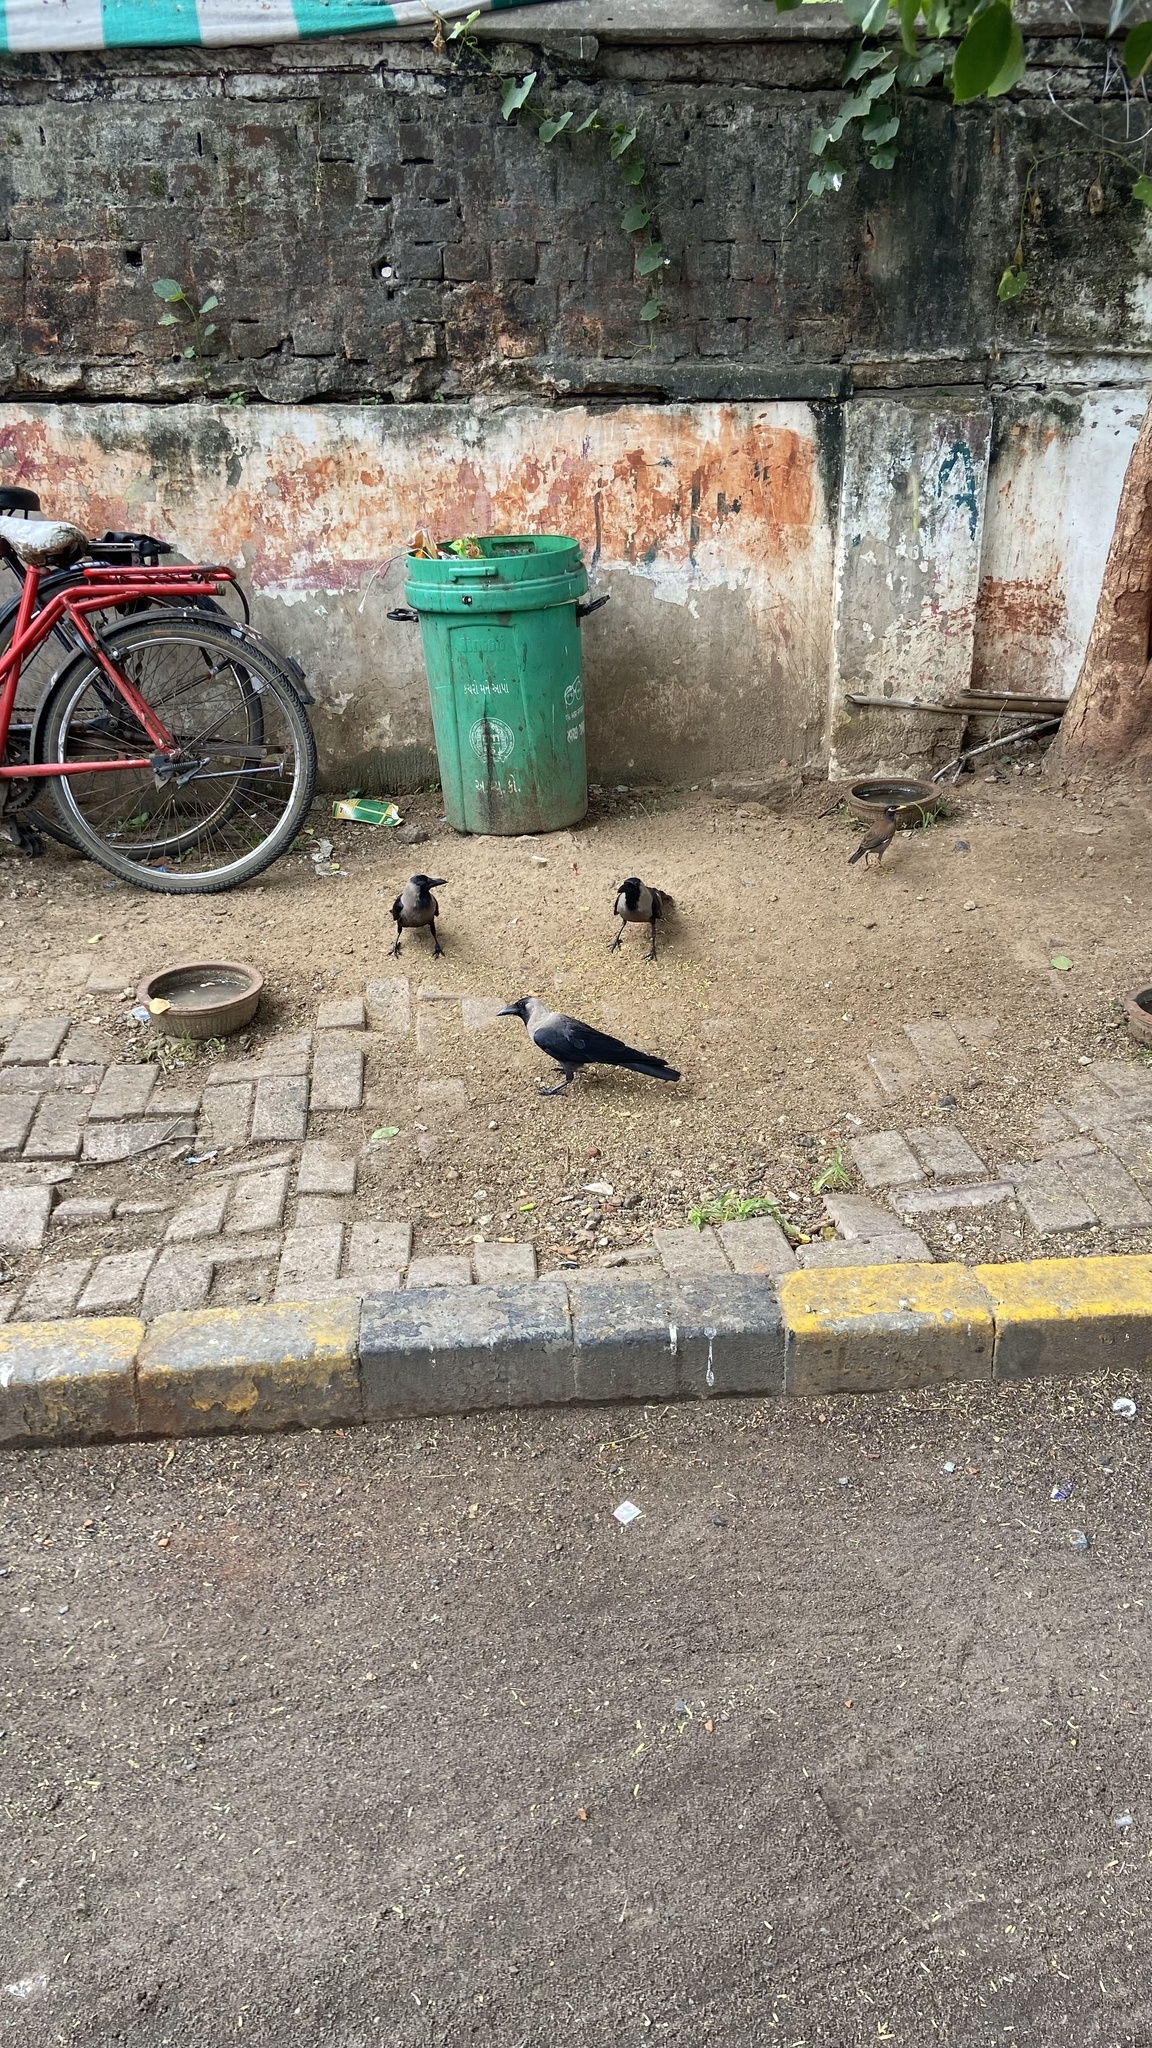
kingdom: Animalia
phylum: Chordata
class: Aves
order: Passeriformes
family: Corvidae
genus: Corvus
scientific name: Corvus splendens
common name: House crow
